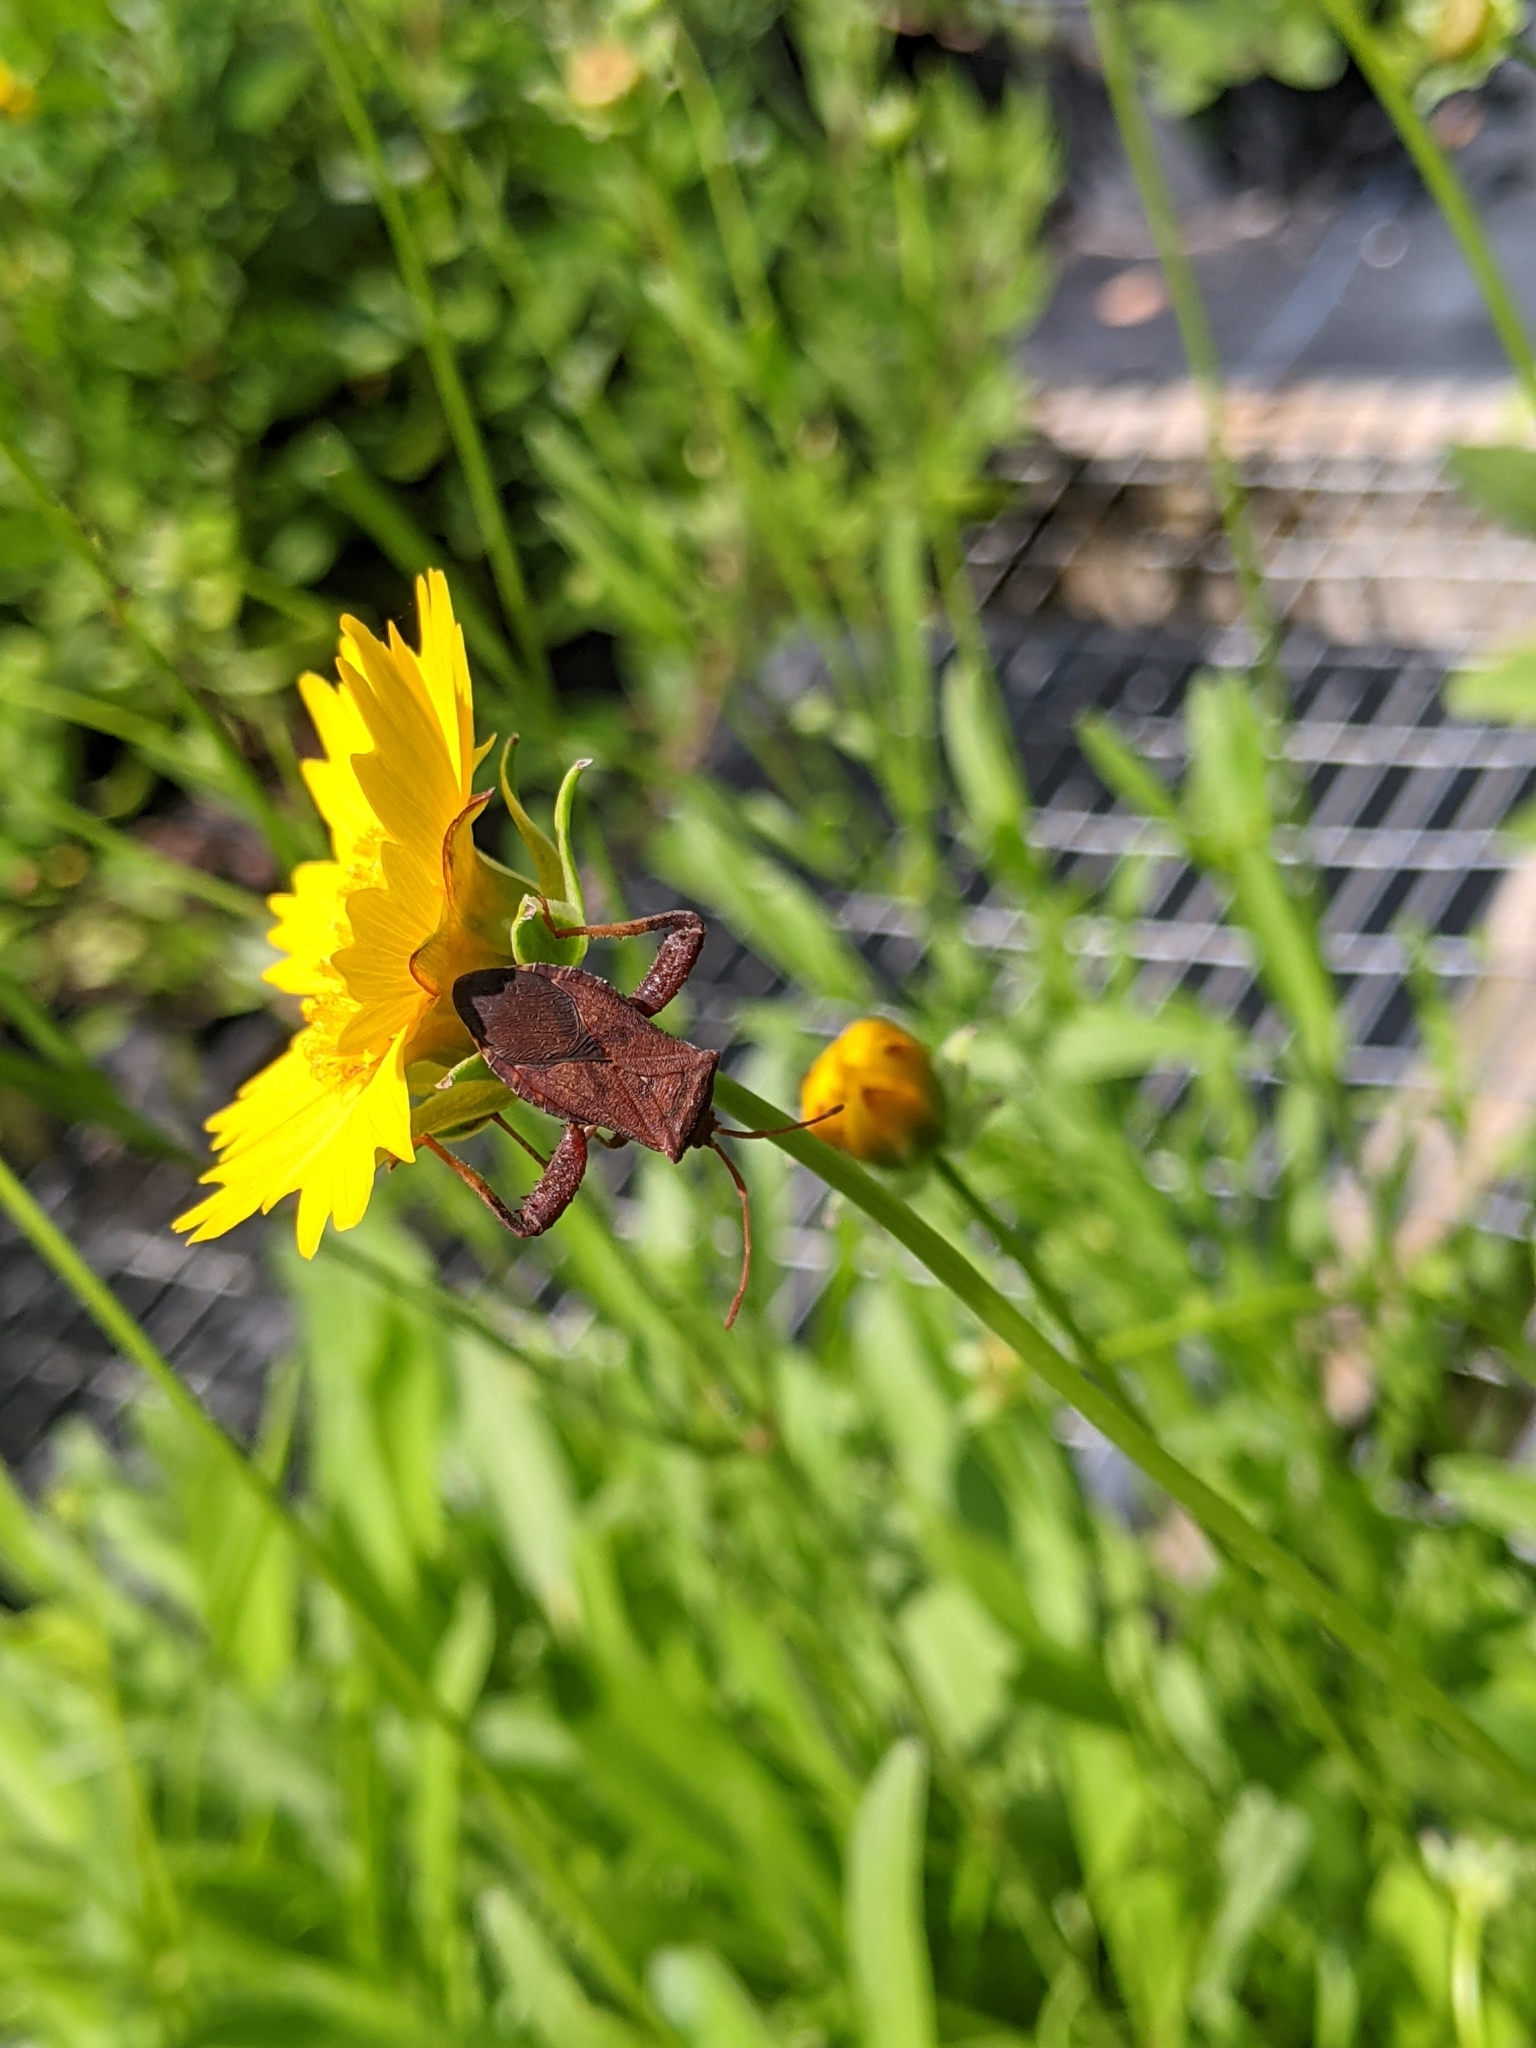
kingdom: Animalia
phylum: Arthropoda
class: Insecta
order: Hemiptera
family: Coreidae
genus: Euthochtha
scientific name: Euthochtha galeator
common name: Helmeted squash bug
